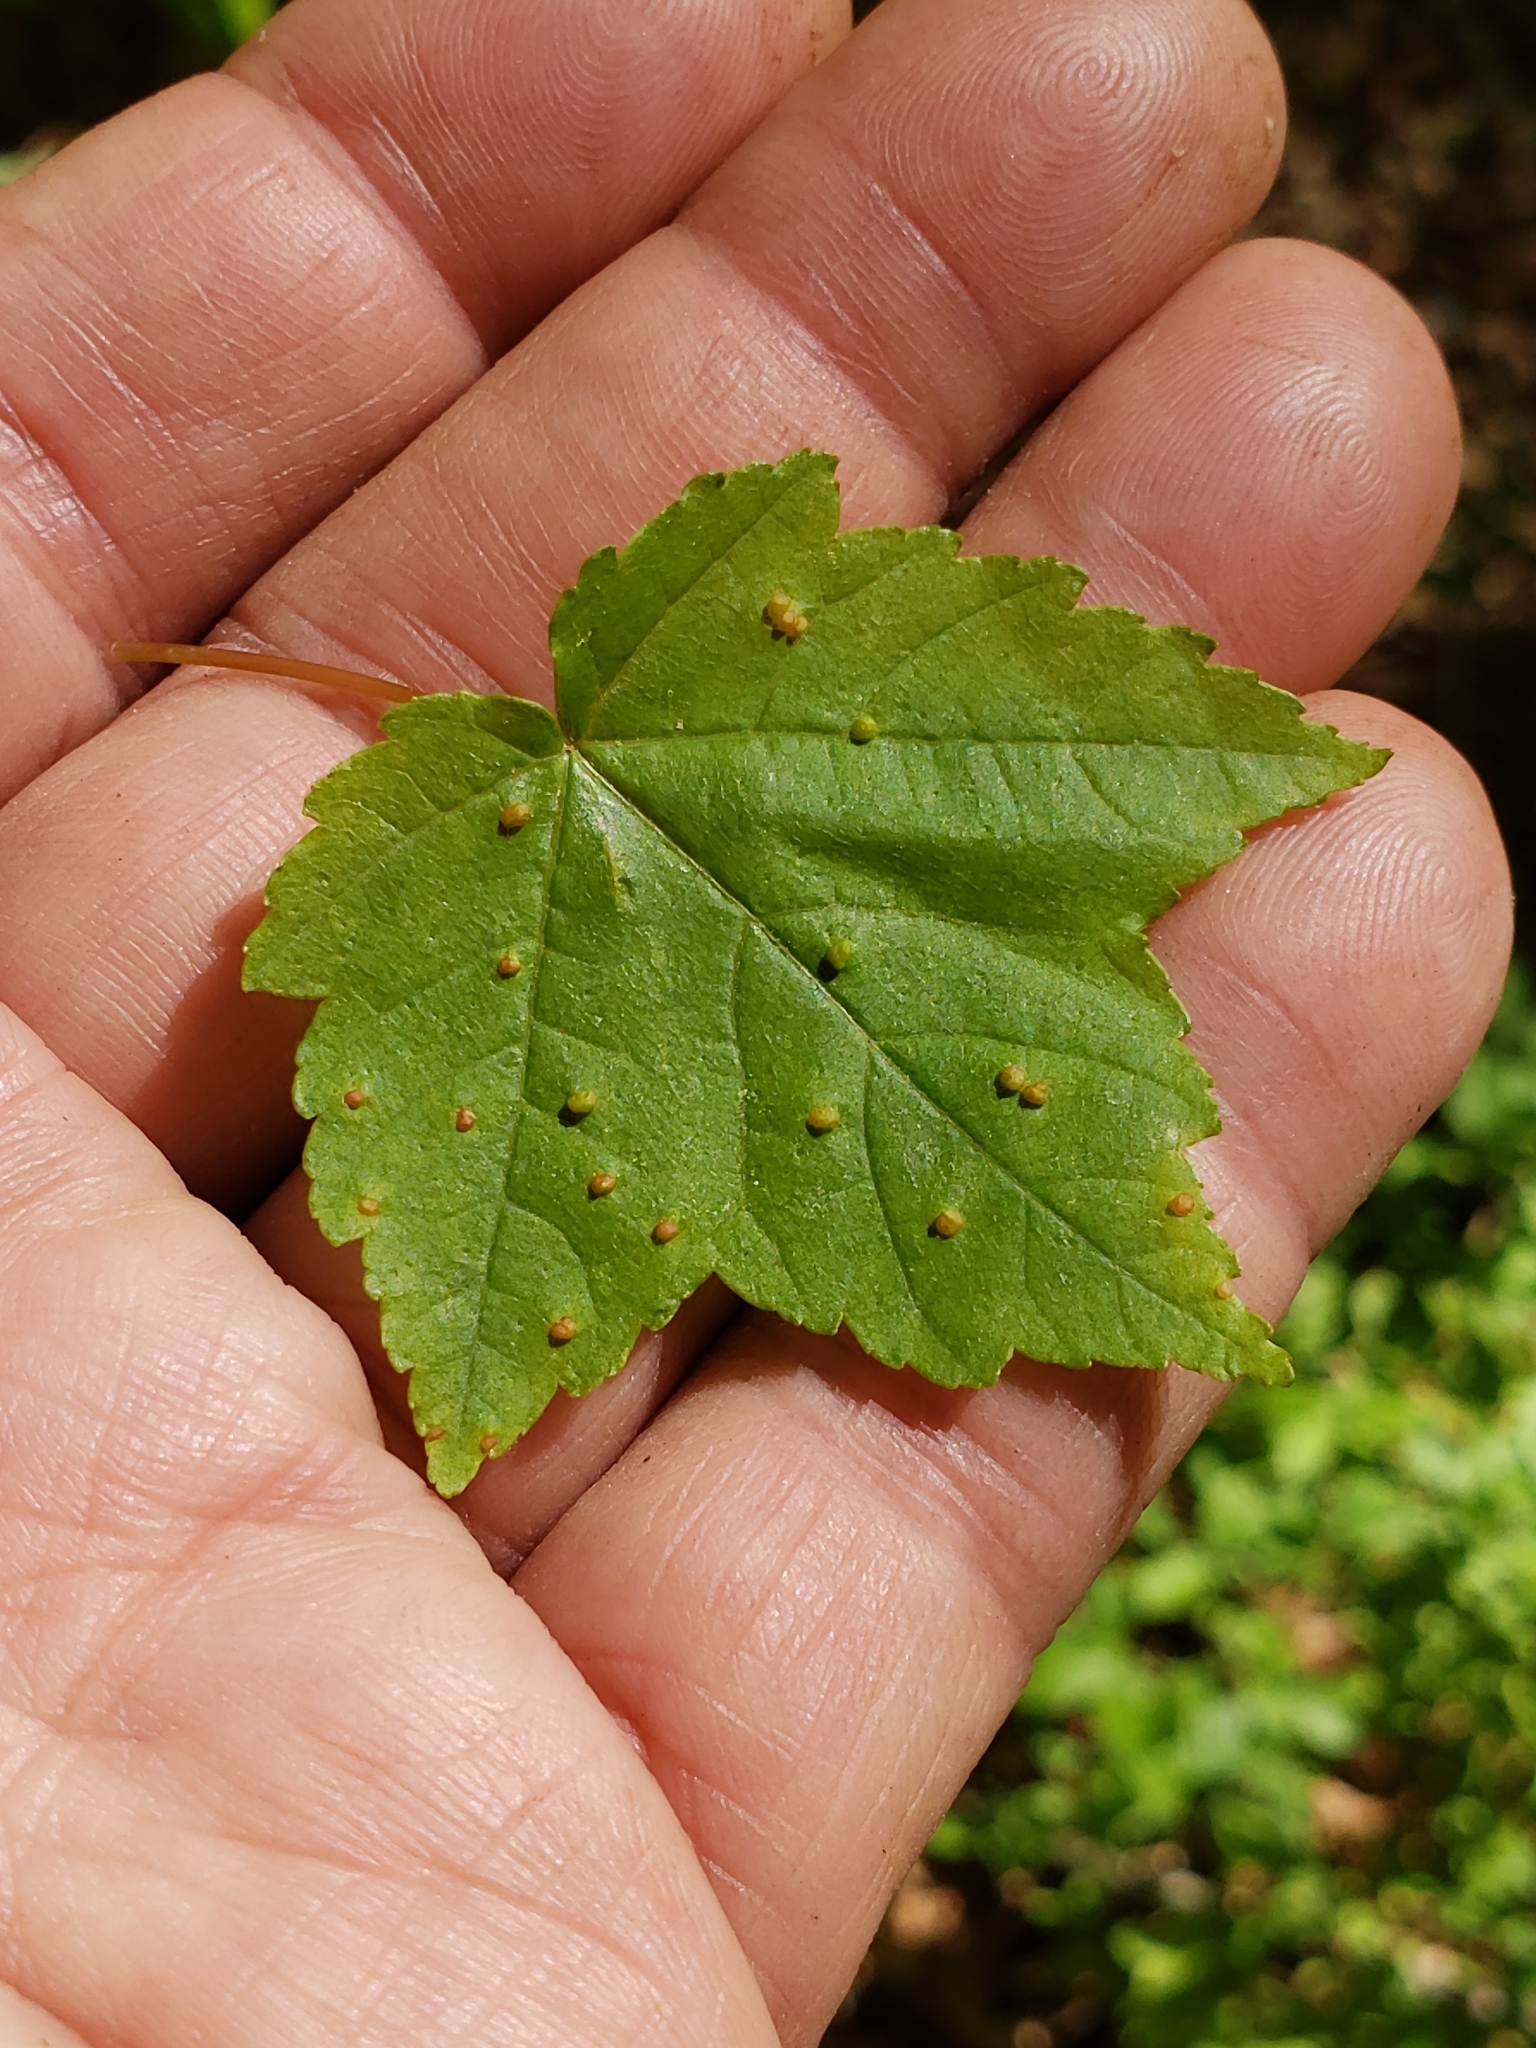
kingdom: Animalia
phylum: Arthropoda
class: Arachnida
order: Trombidiformes
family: Eriophyidae
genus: Vasates
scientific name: Vasates quadripedes
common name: Maple bladder gall mite
